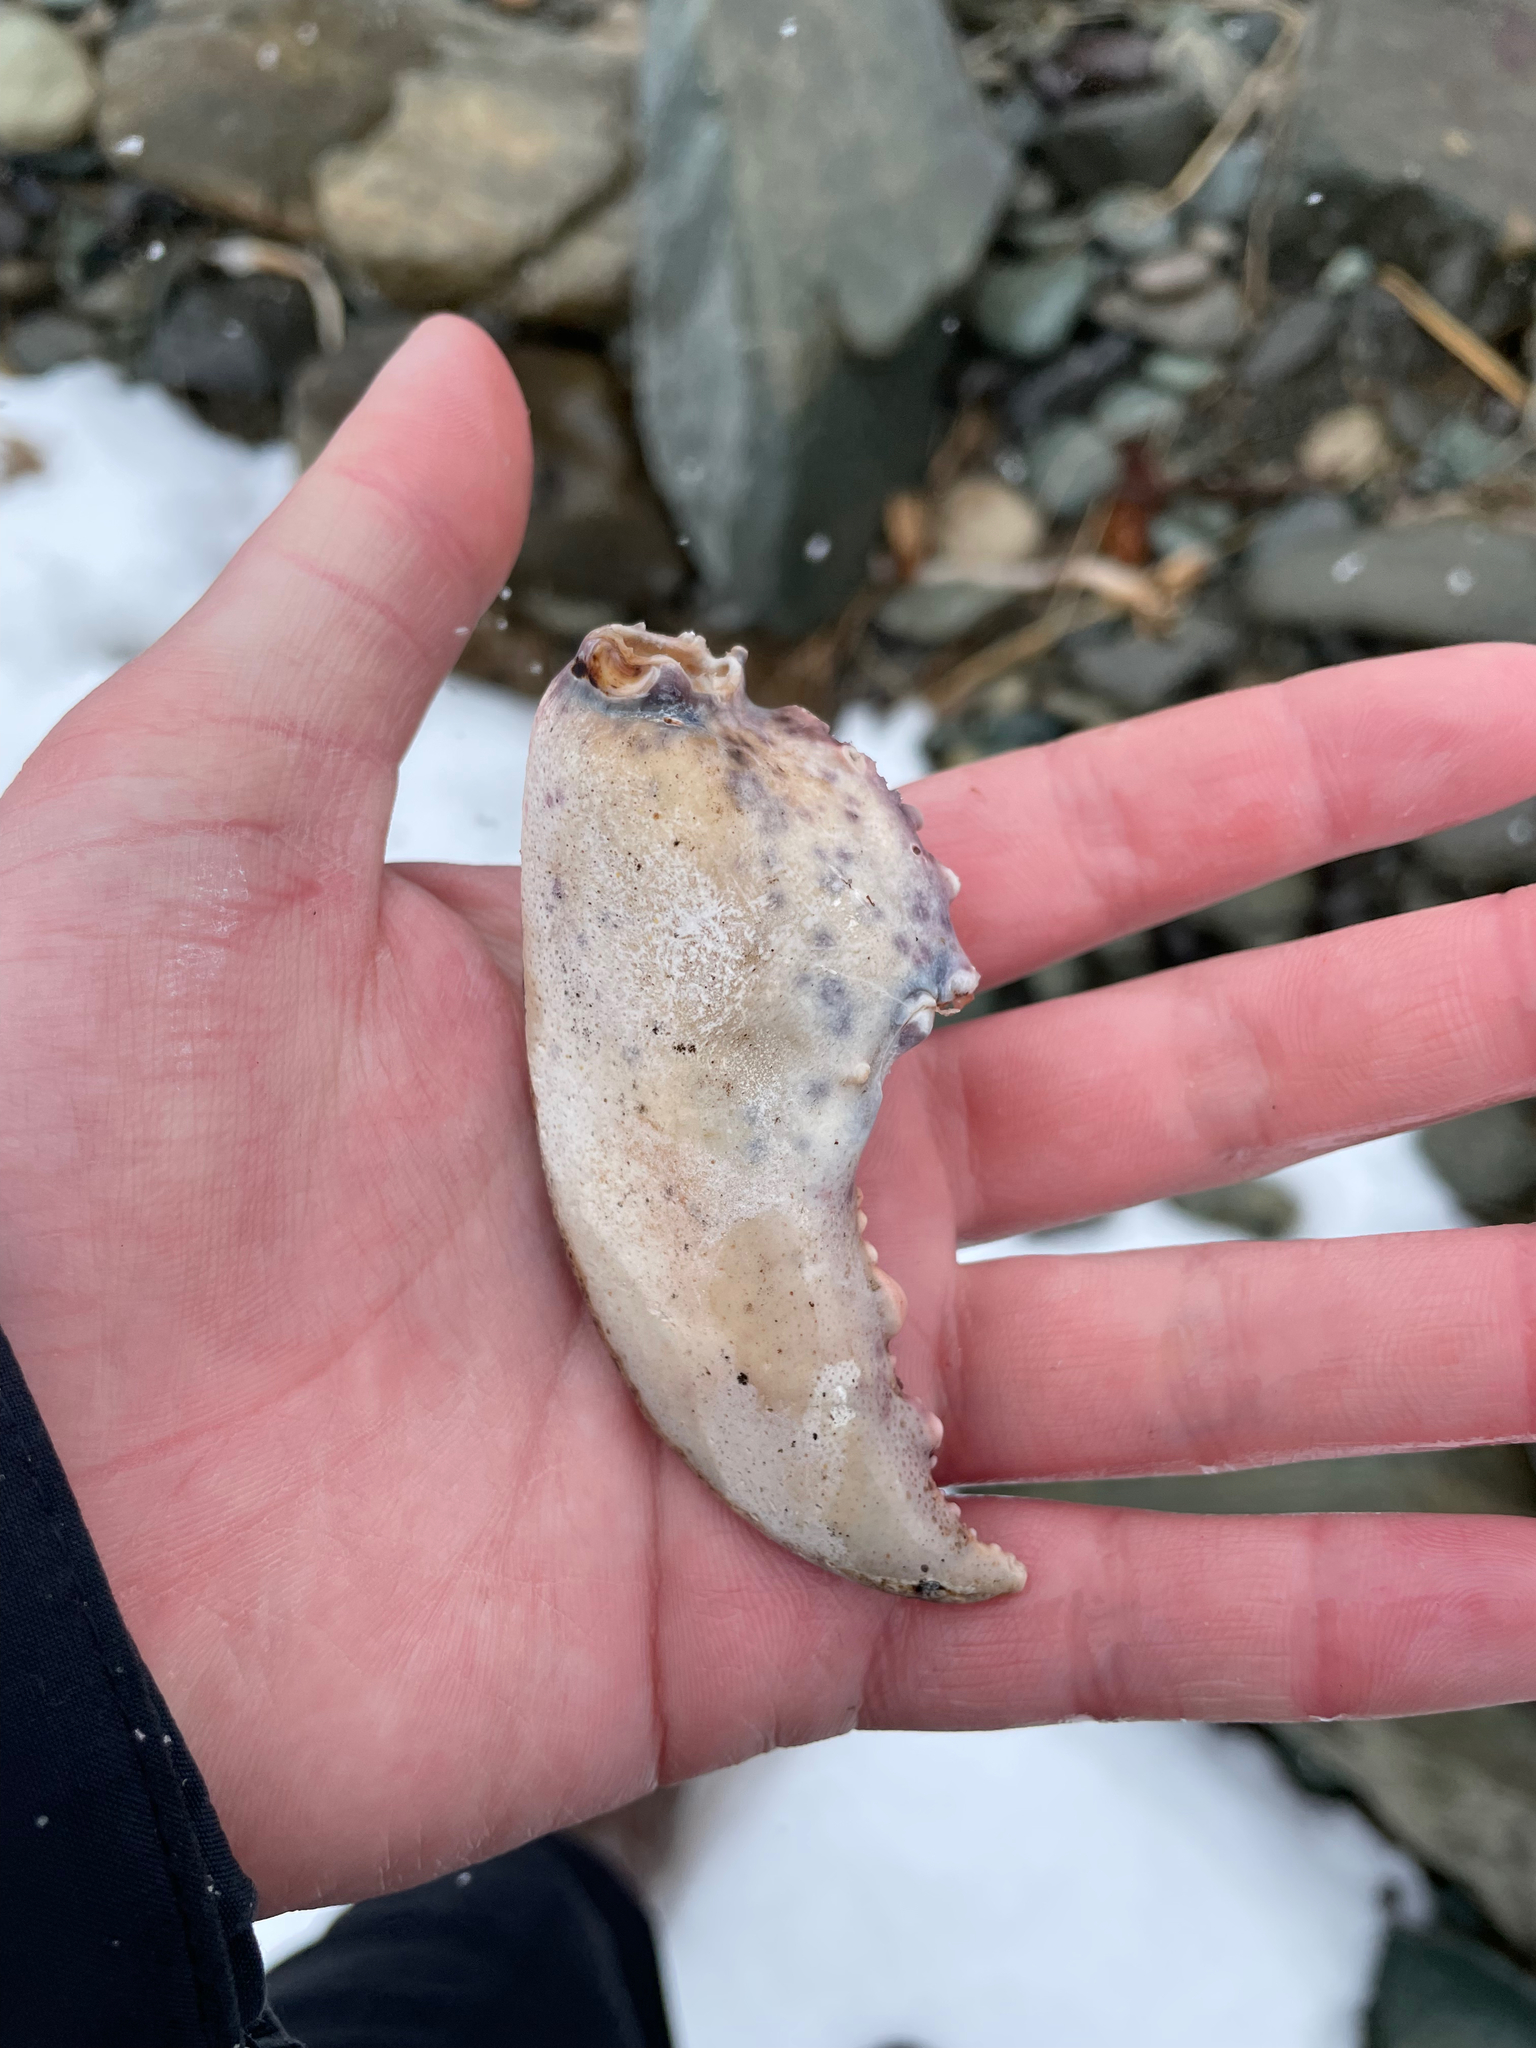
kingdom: Animalia
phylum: Arthropoda
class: Malacostraca
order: Decapoda
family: Nephropidae
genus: Homarus
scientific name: Homarus americanus
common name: American lobster
